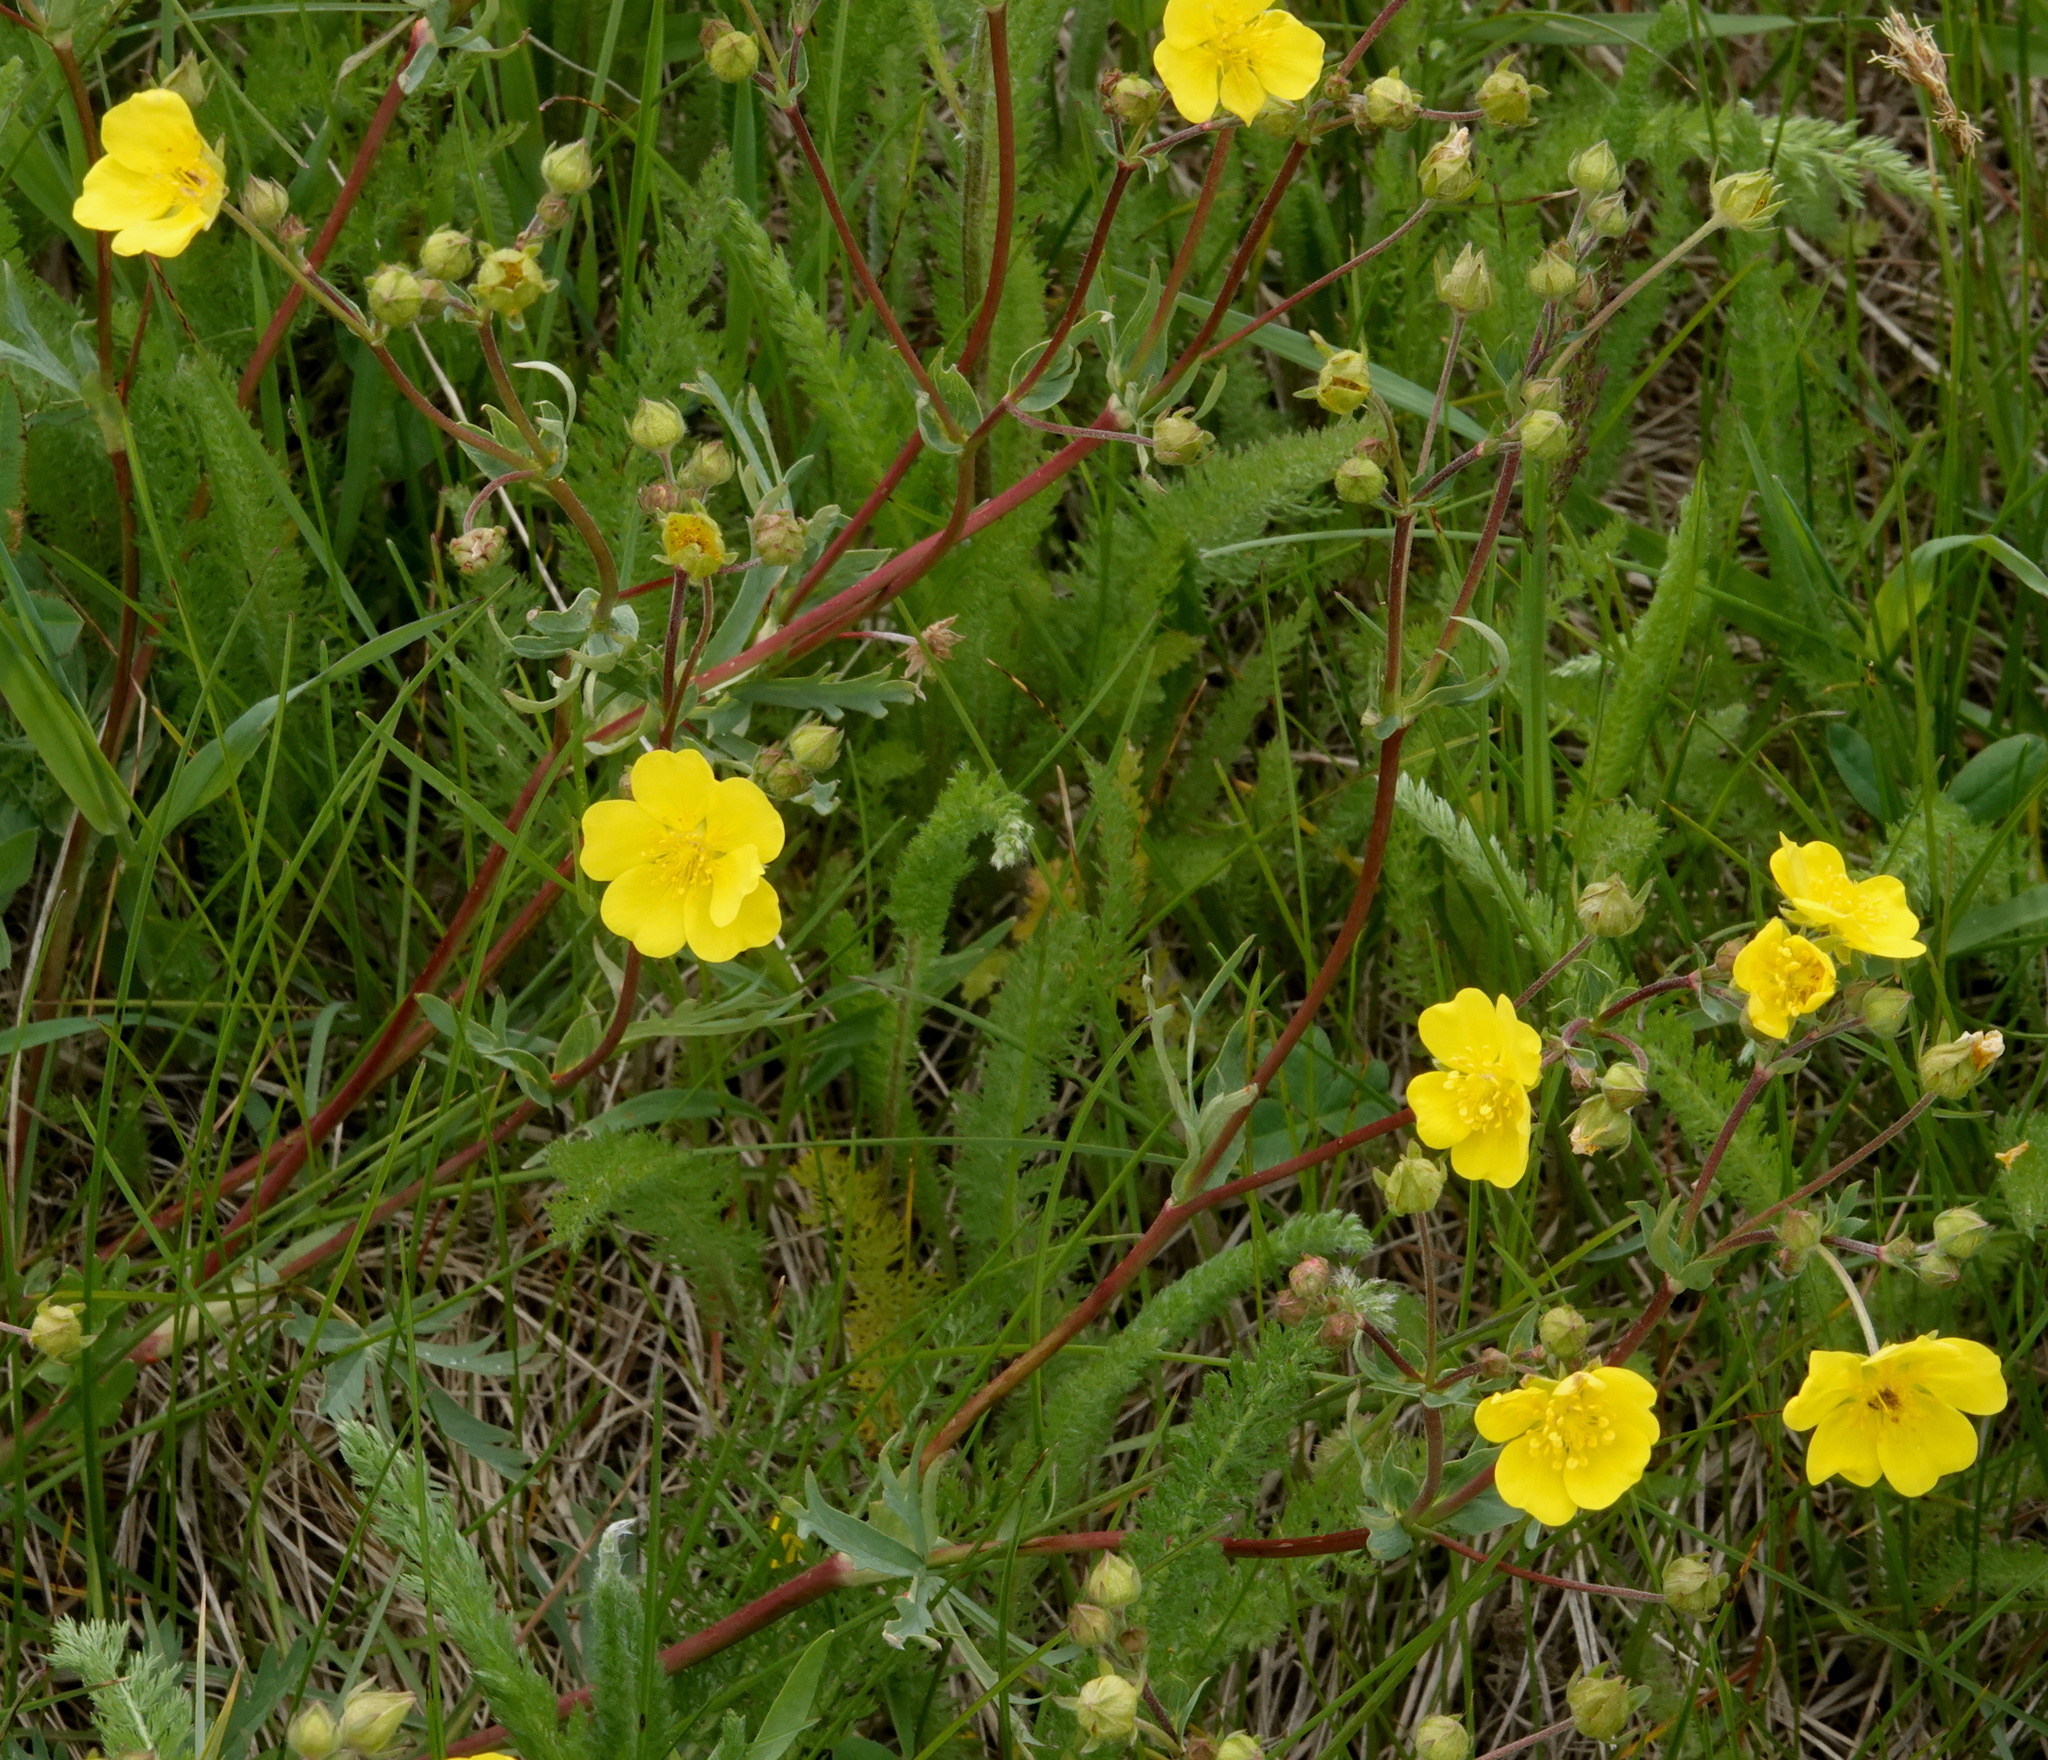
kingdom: Plantae
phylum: Tracheophyta
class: Magnoliopsida
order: Rosales
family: Rosaceae
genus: Potentilla
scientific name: Potentilla glaucophylla
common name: Blue-leaved cinquefoil
